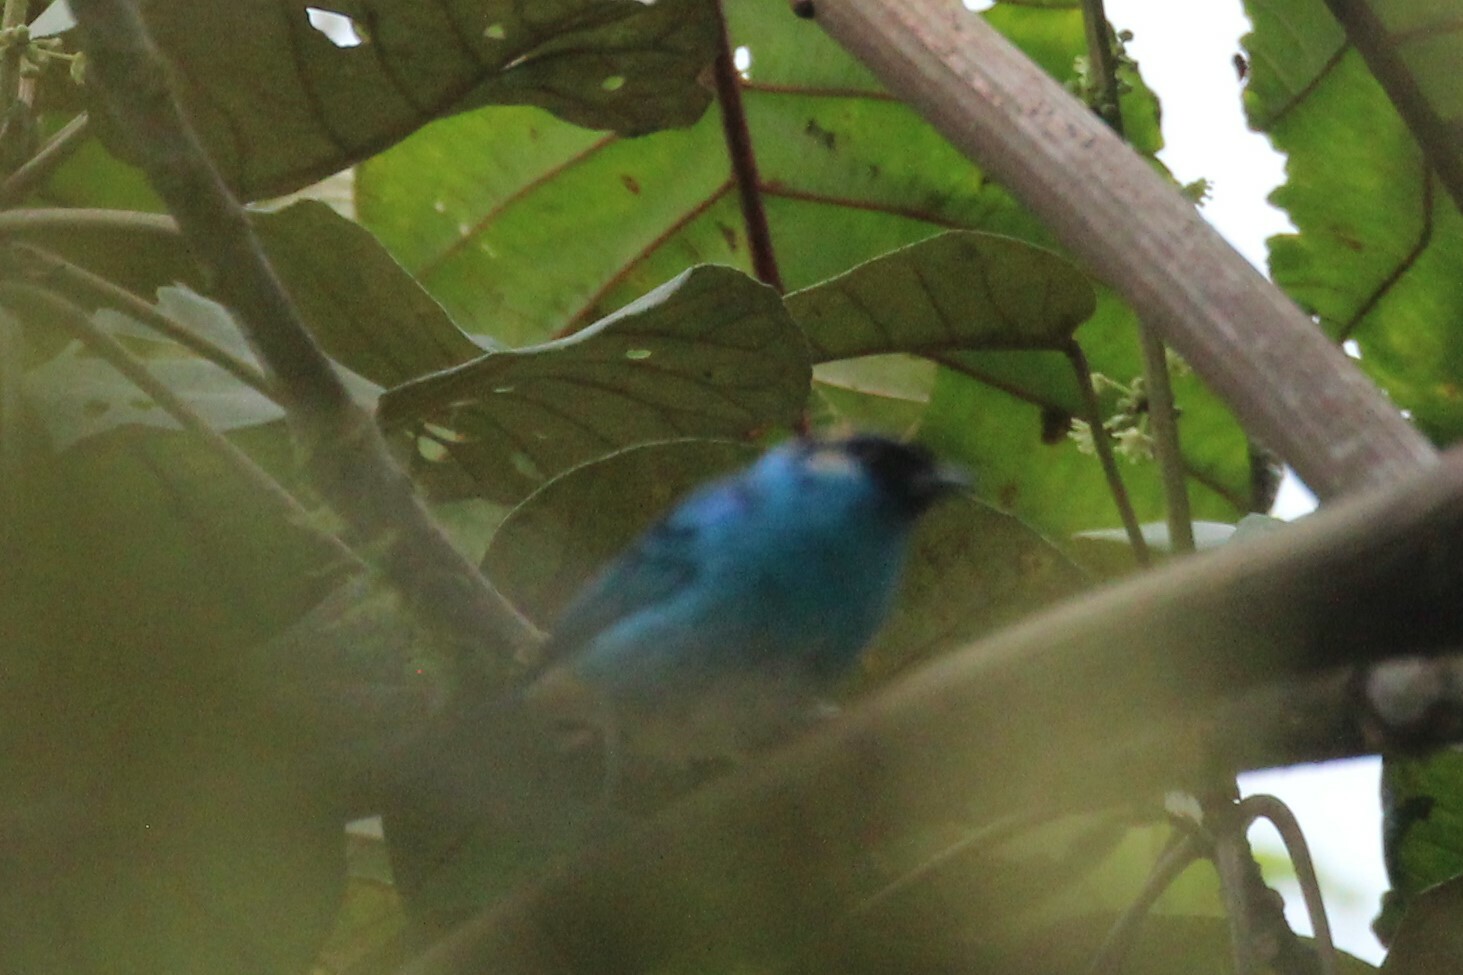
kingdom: Animalia
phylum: Chordata
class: Aves
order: Passeriformes
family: Thraupidae
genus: Chalcothraupis
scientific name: Chalcothraupis ruficervix
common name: Golden-naped tanager
